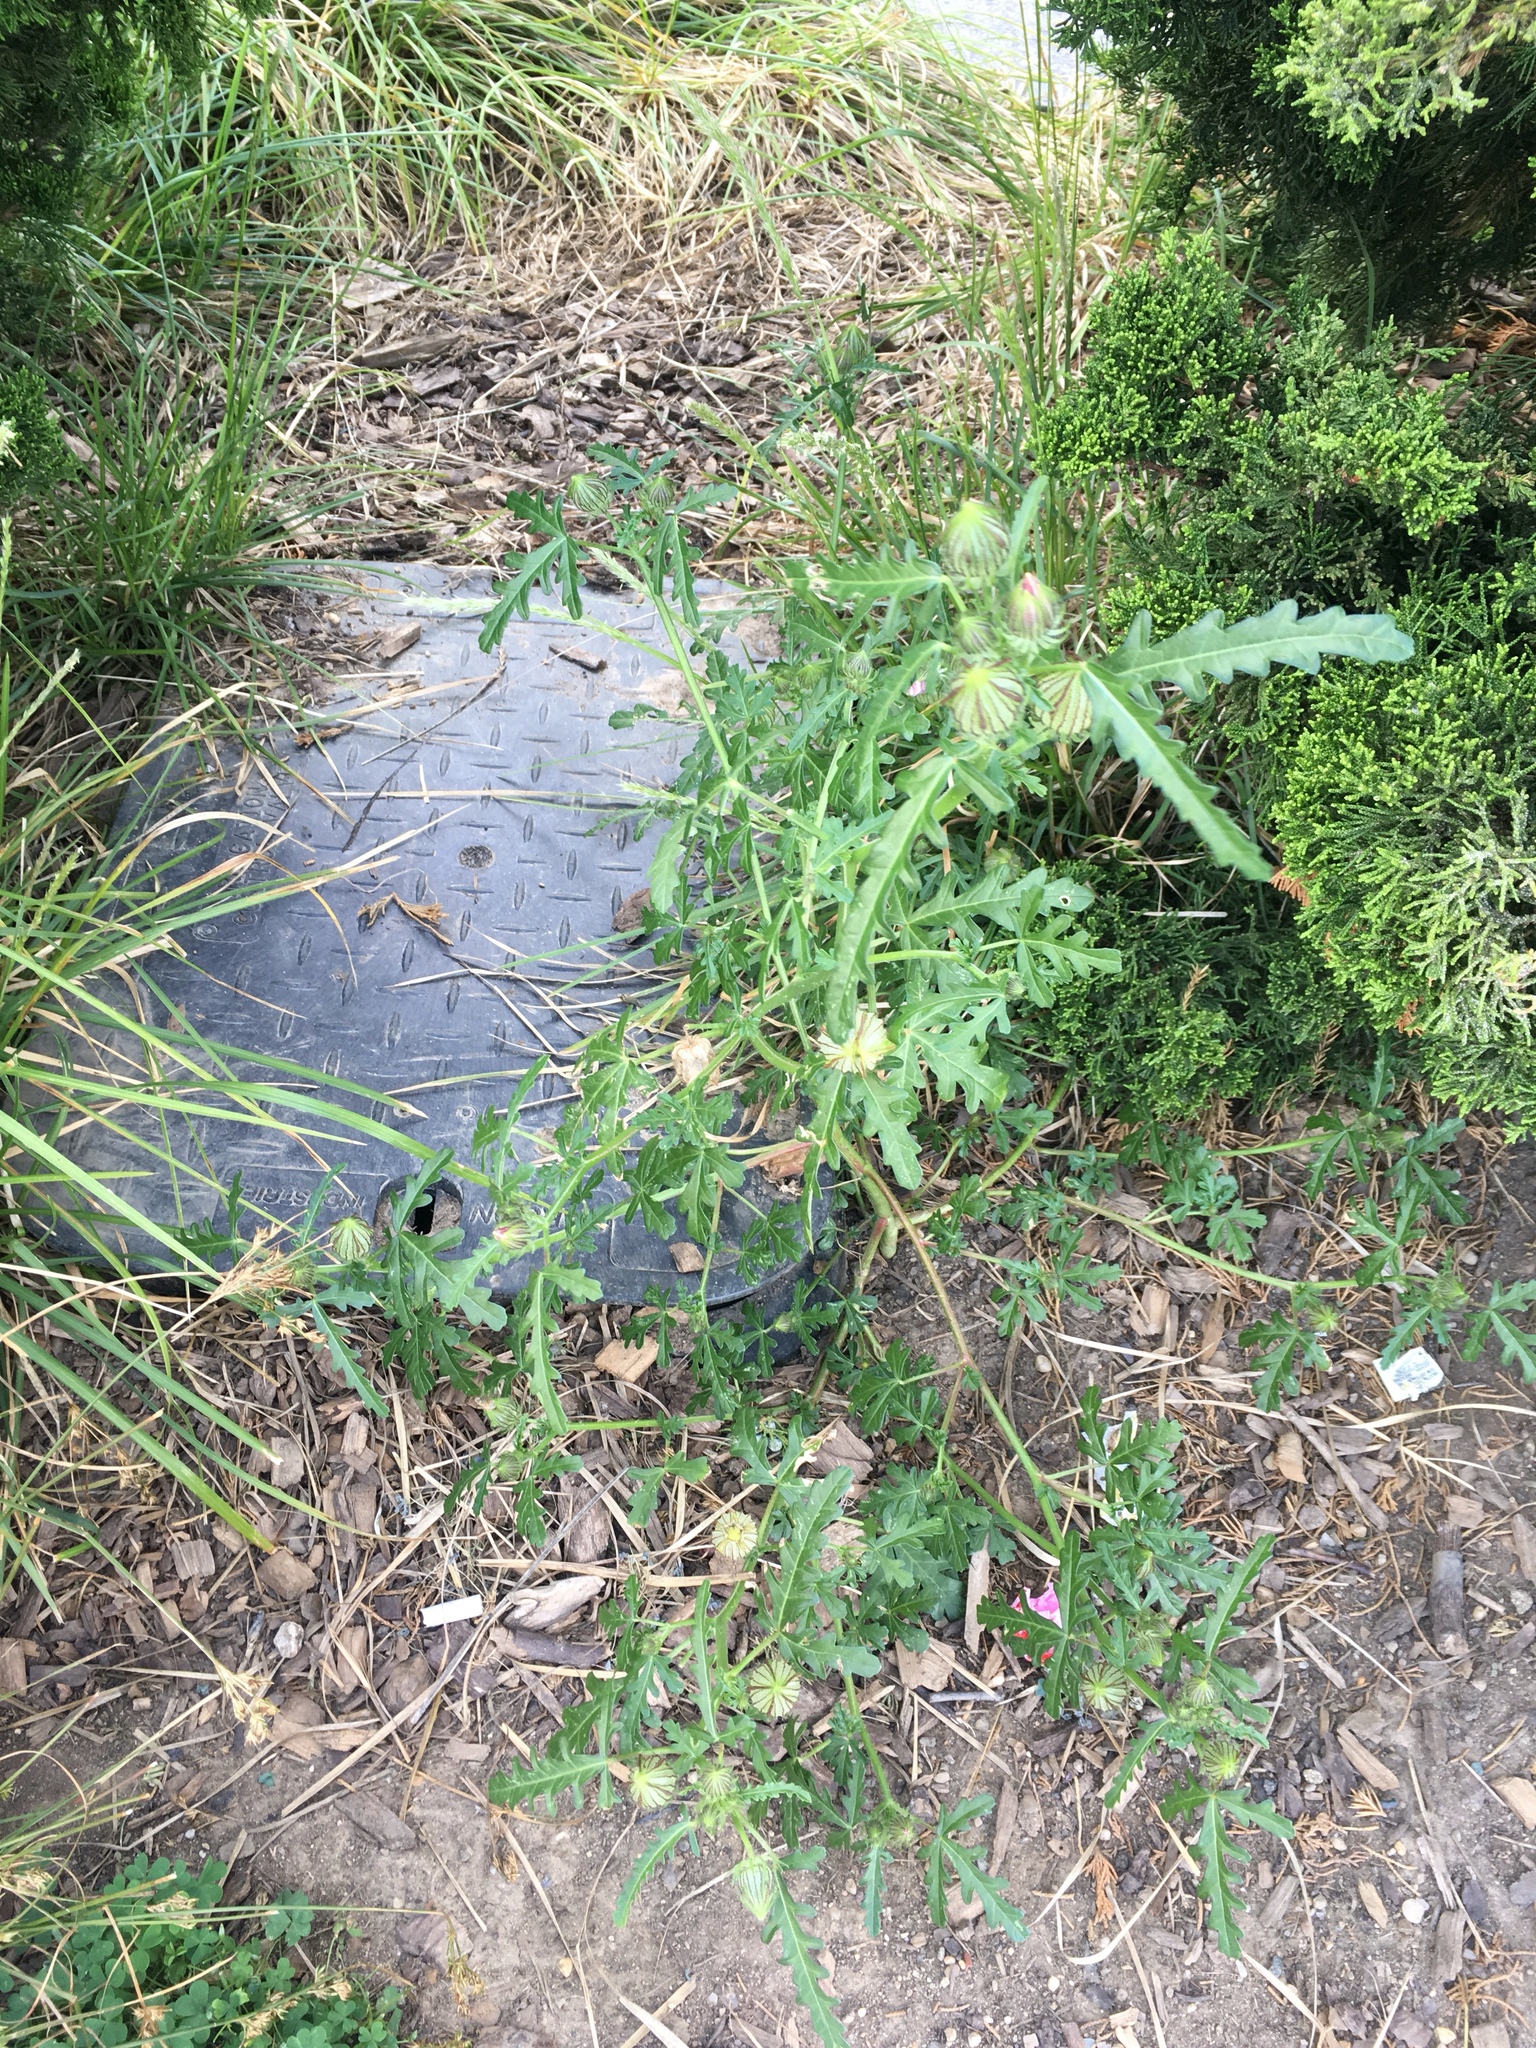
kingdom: Plantae
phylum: Tracheophyta
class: Magnoliopsida
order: Malvales
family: Malvaceae
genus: Hibiscus
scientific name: Hibiscus trionum
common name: Bladder ketmia
